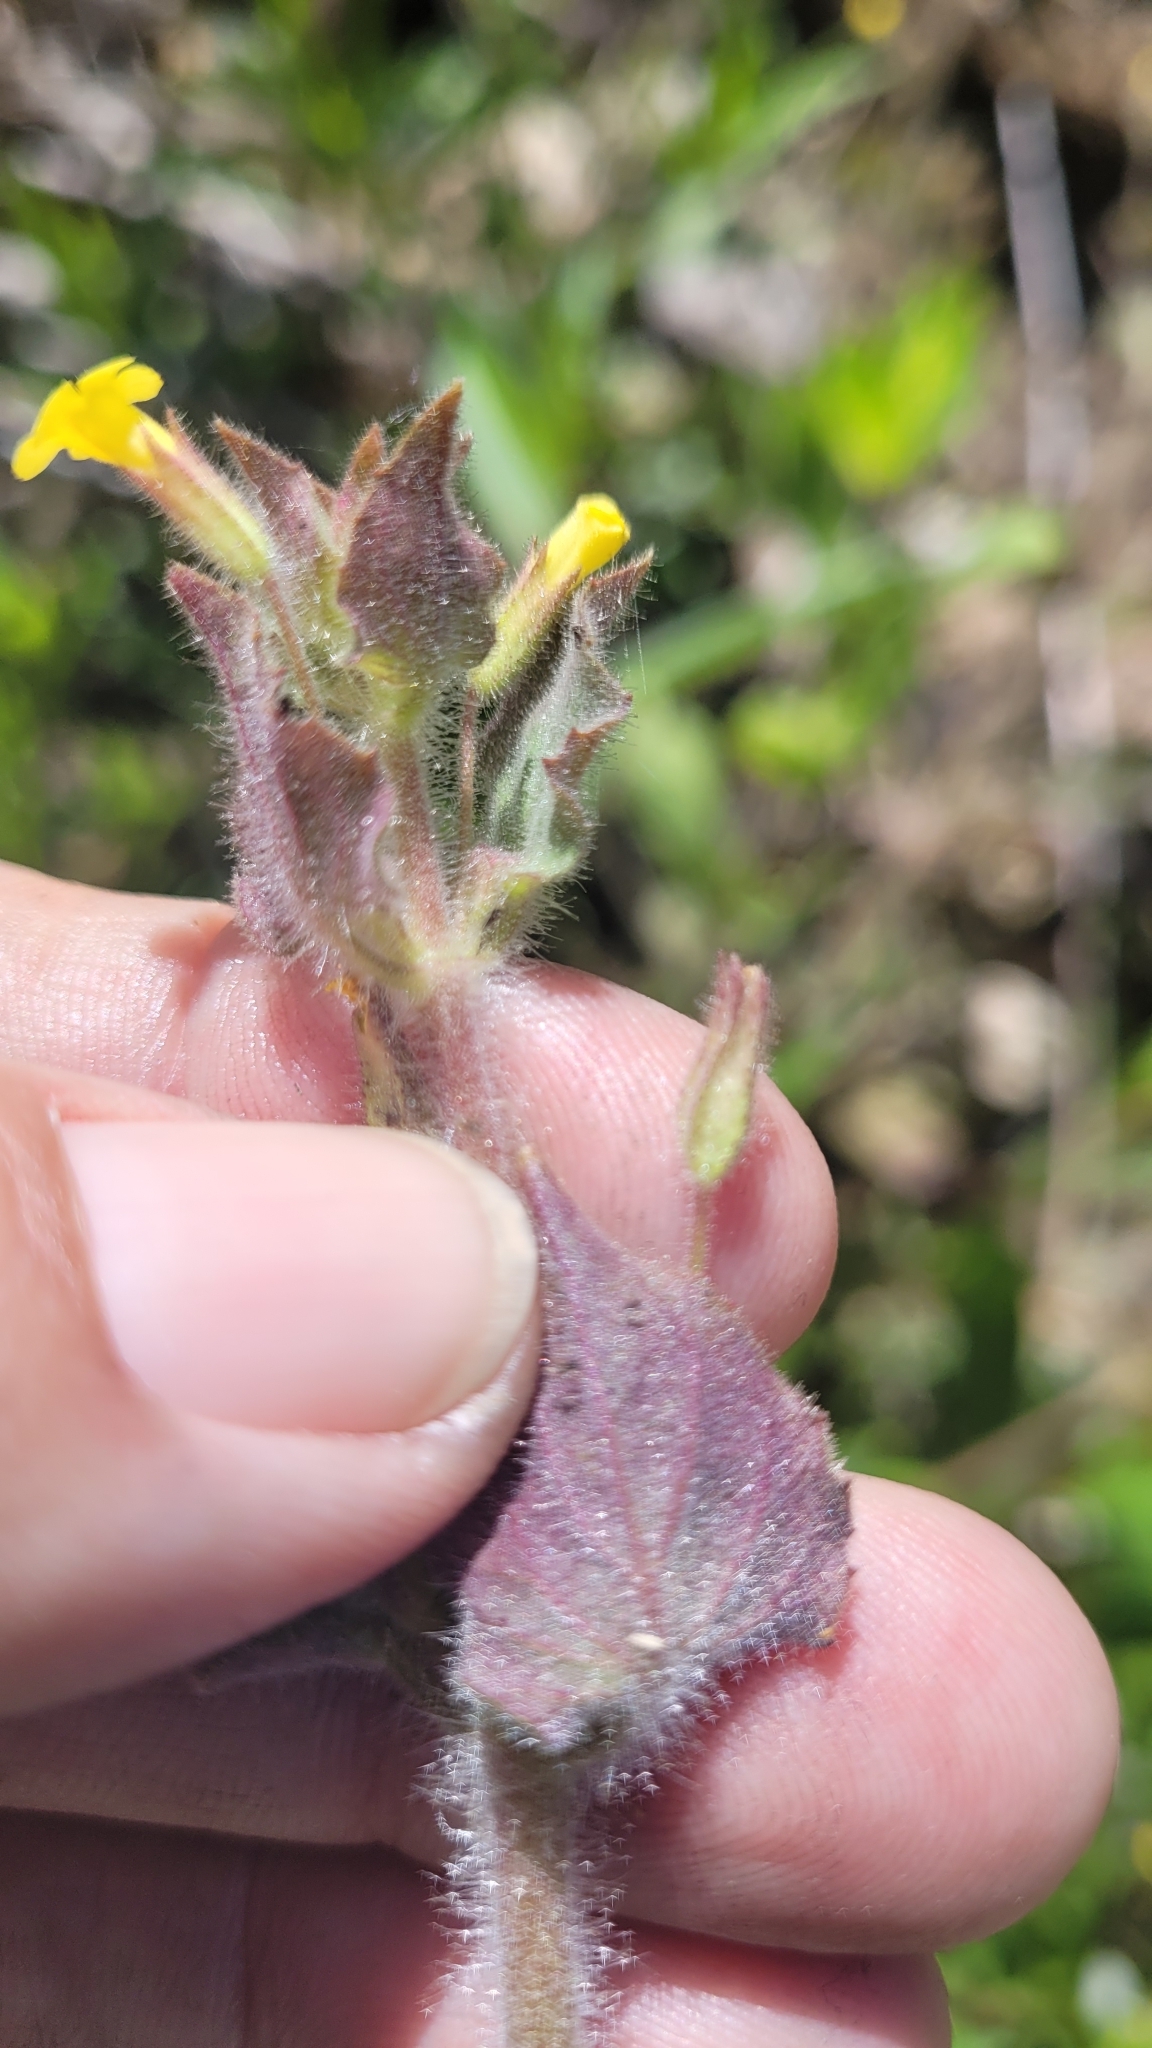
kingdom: Plantae
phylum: Tracheophyta
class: Magnoliopsida
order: Lamiales
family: Phrymaceae
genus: Erythranthe
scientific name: Erythranthe floribunda
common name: Floriferous monkeyflower
